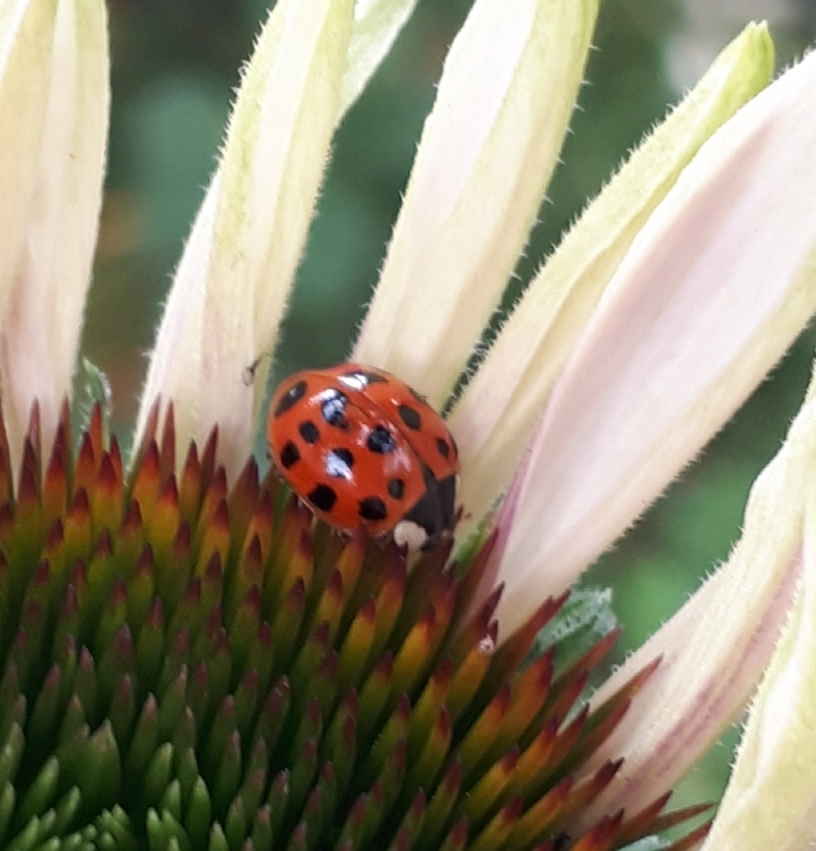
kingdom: Animalia
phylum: Arthropoda
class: Insecta
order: Coleoptera
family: Coccinellidae
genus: Harmonia
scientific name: Harmonia axyridis
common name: Harlequin ladybird
